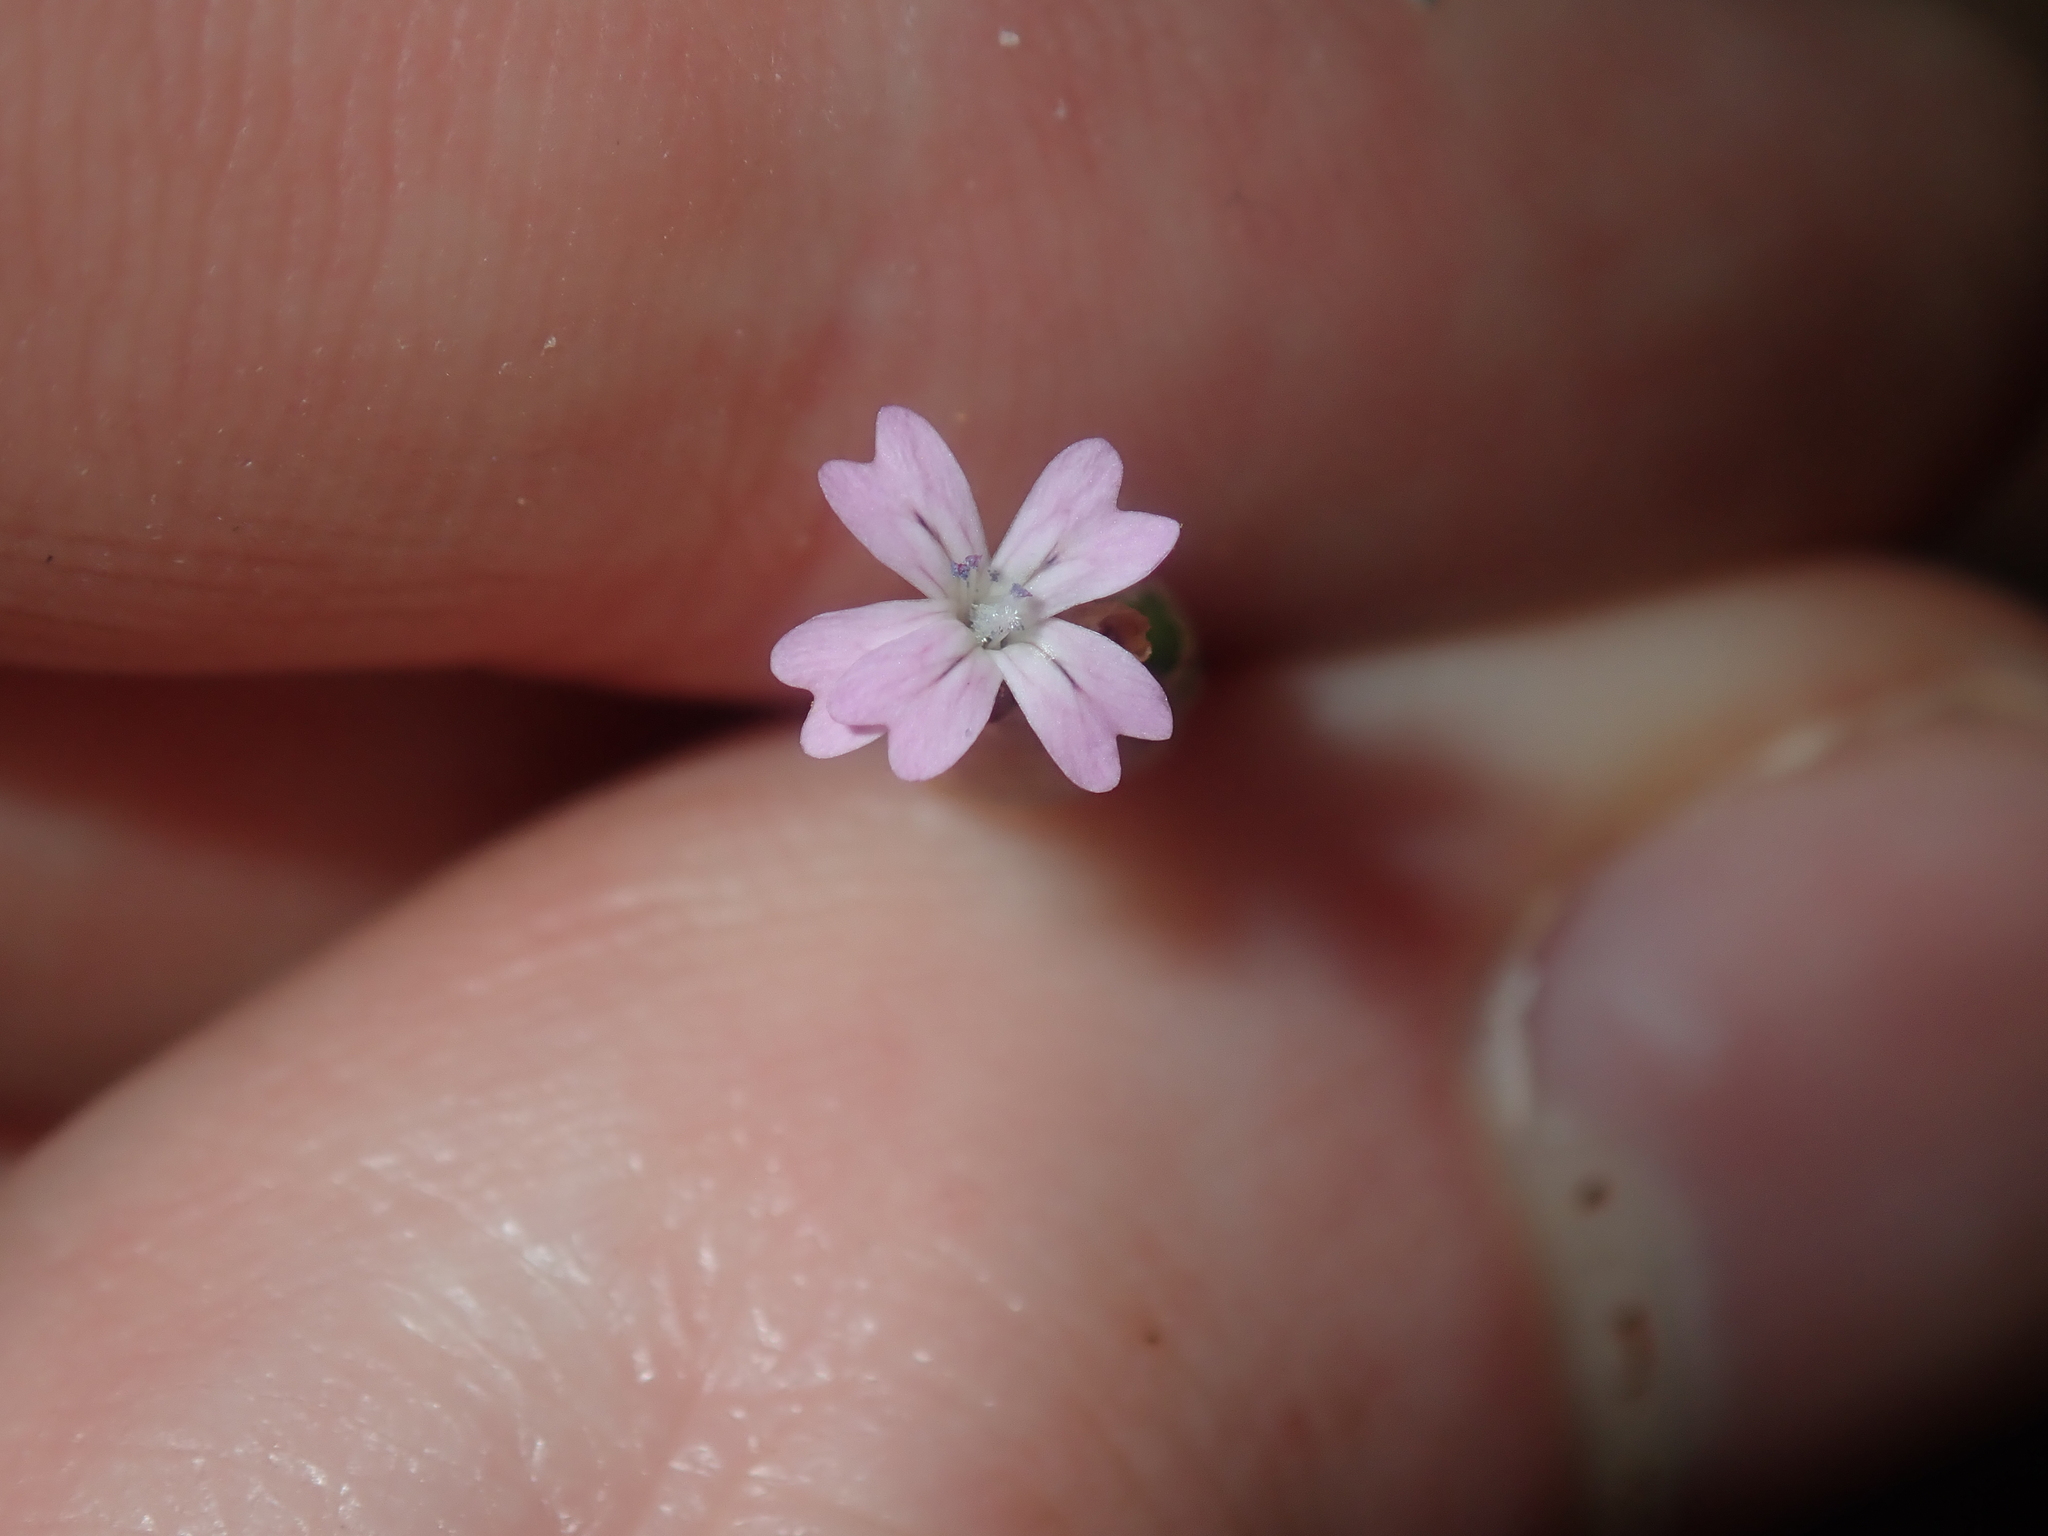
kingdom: Plantae
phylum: Tracheophyta
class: Magnoliopsida
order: Caryophyllales
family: Caryophyllaceae
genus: Petrorhagia
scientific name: Petrorhagia dubia
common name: Hairypink
